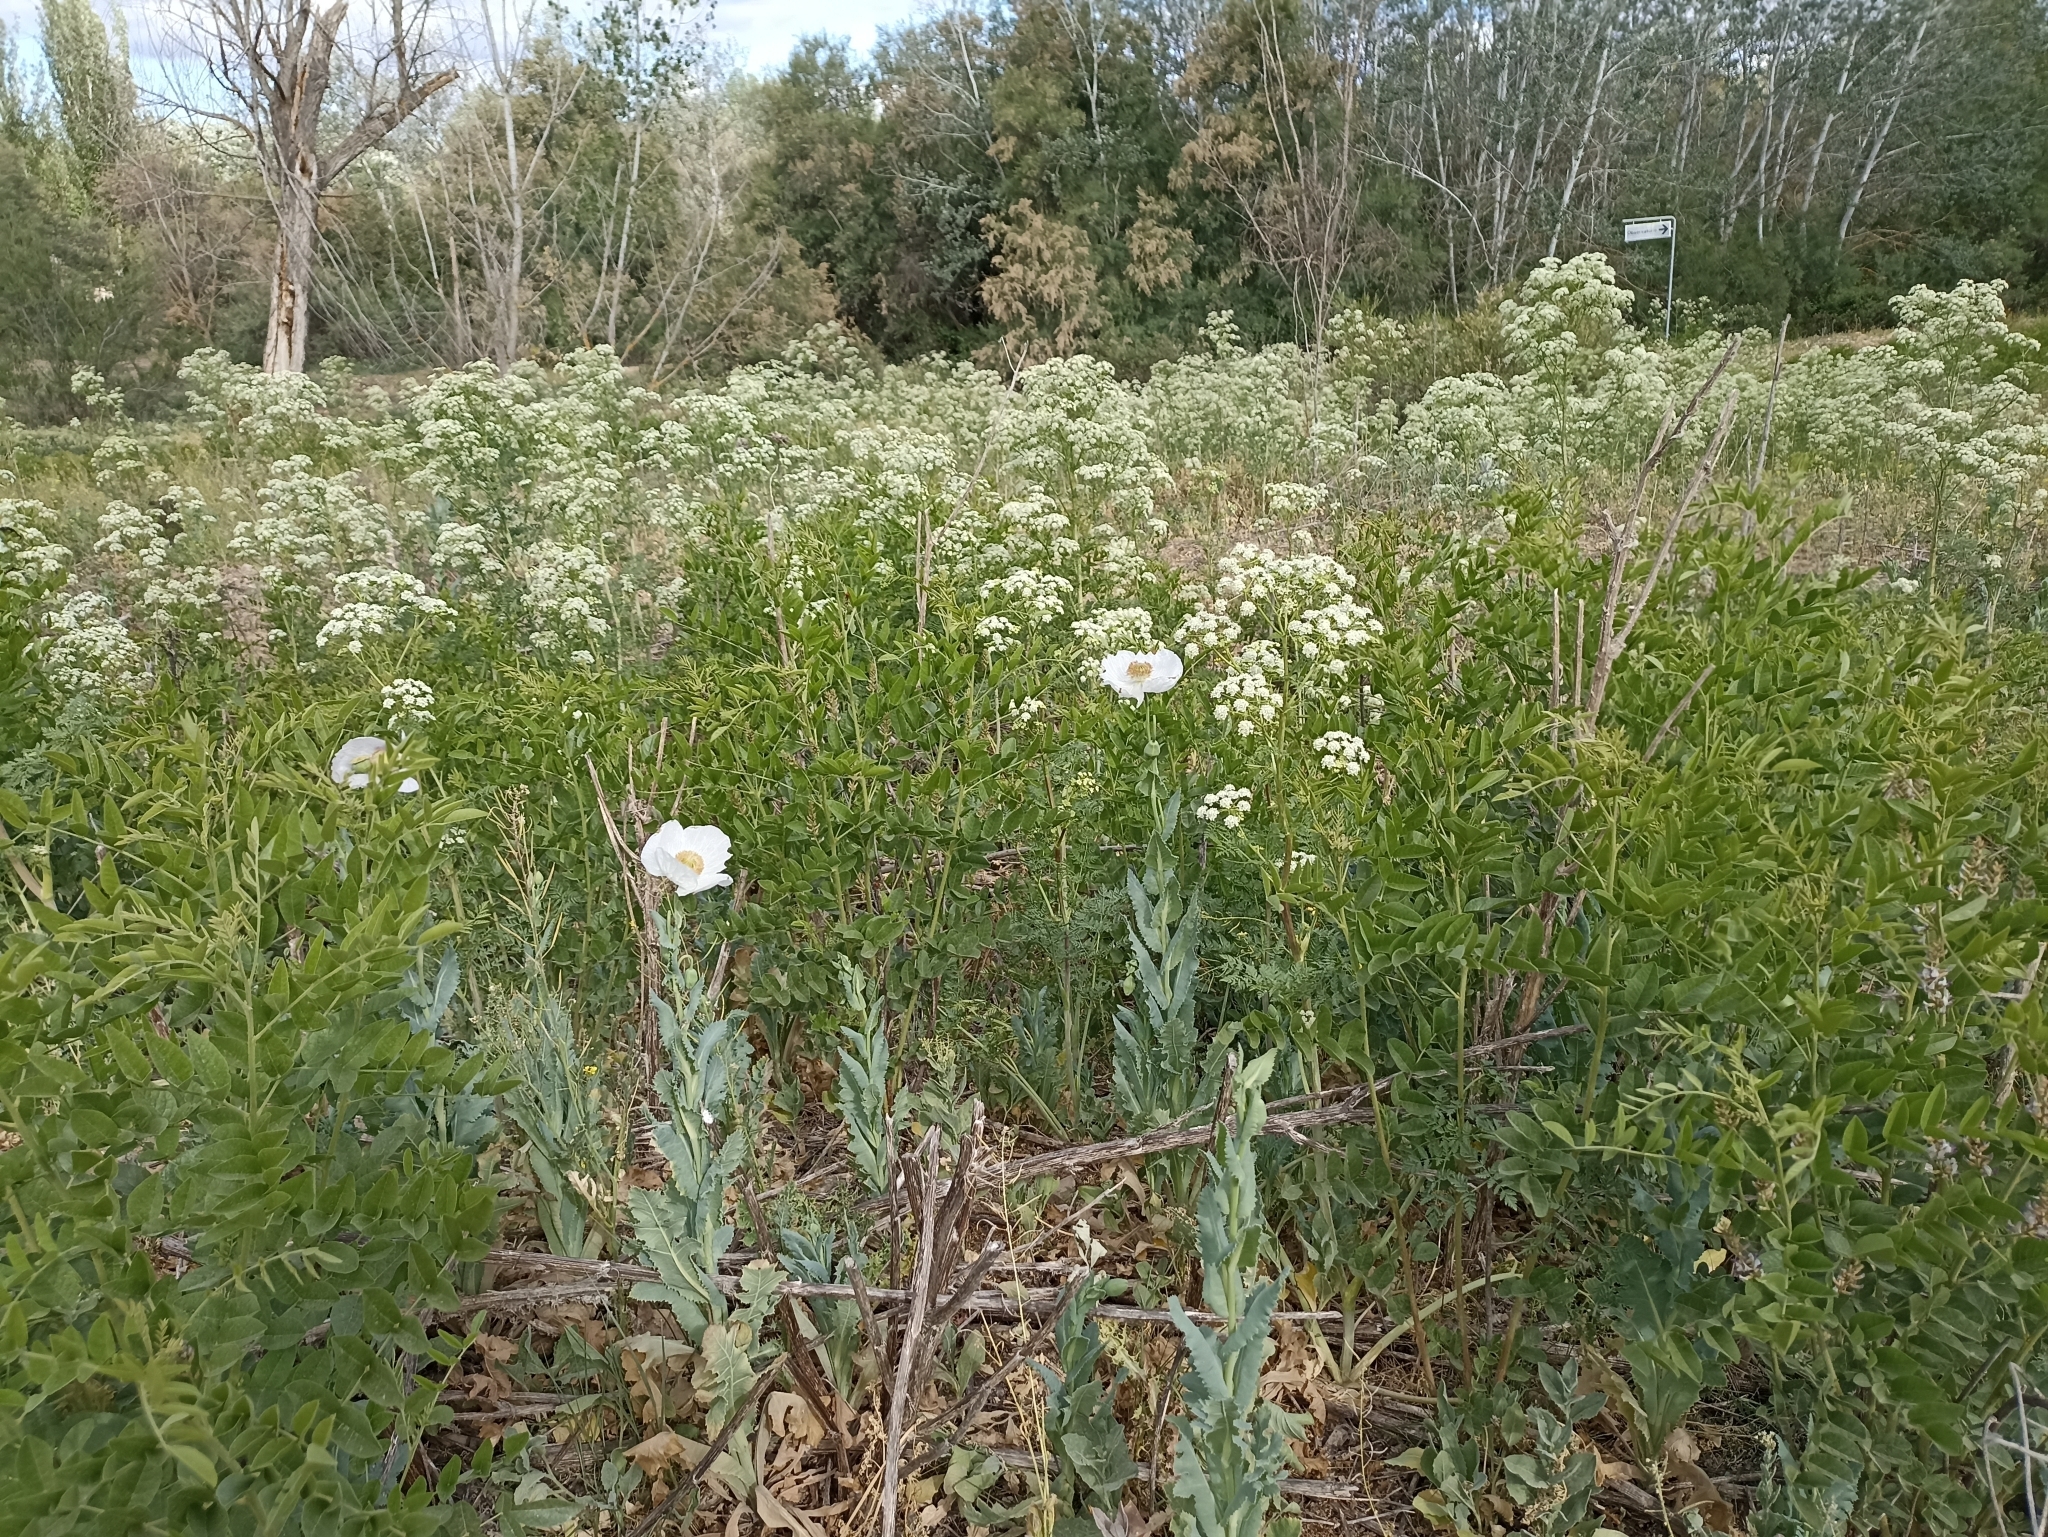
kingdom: Plantae
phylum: Tracheophyta
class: Magnoliopsida
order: Ranunculales
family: Papaveraceae
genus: Papaver
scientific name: Papaver somniferum
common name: Opium poppy
